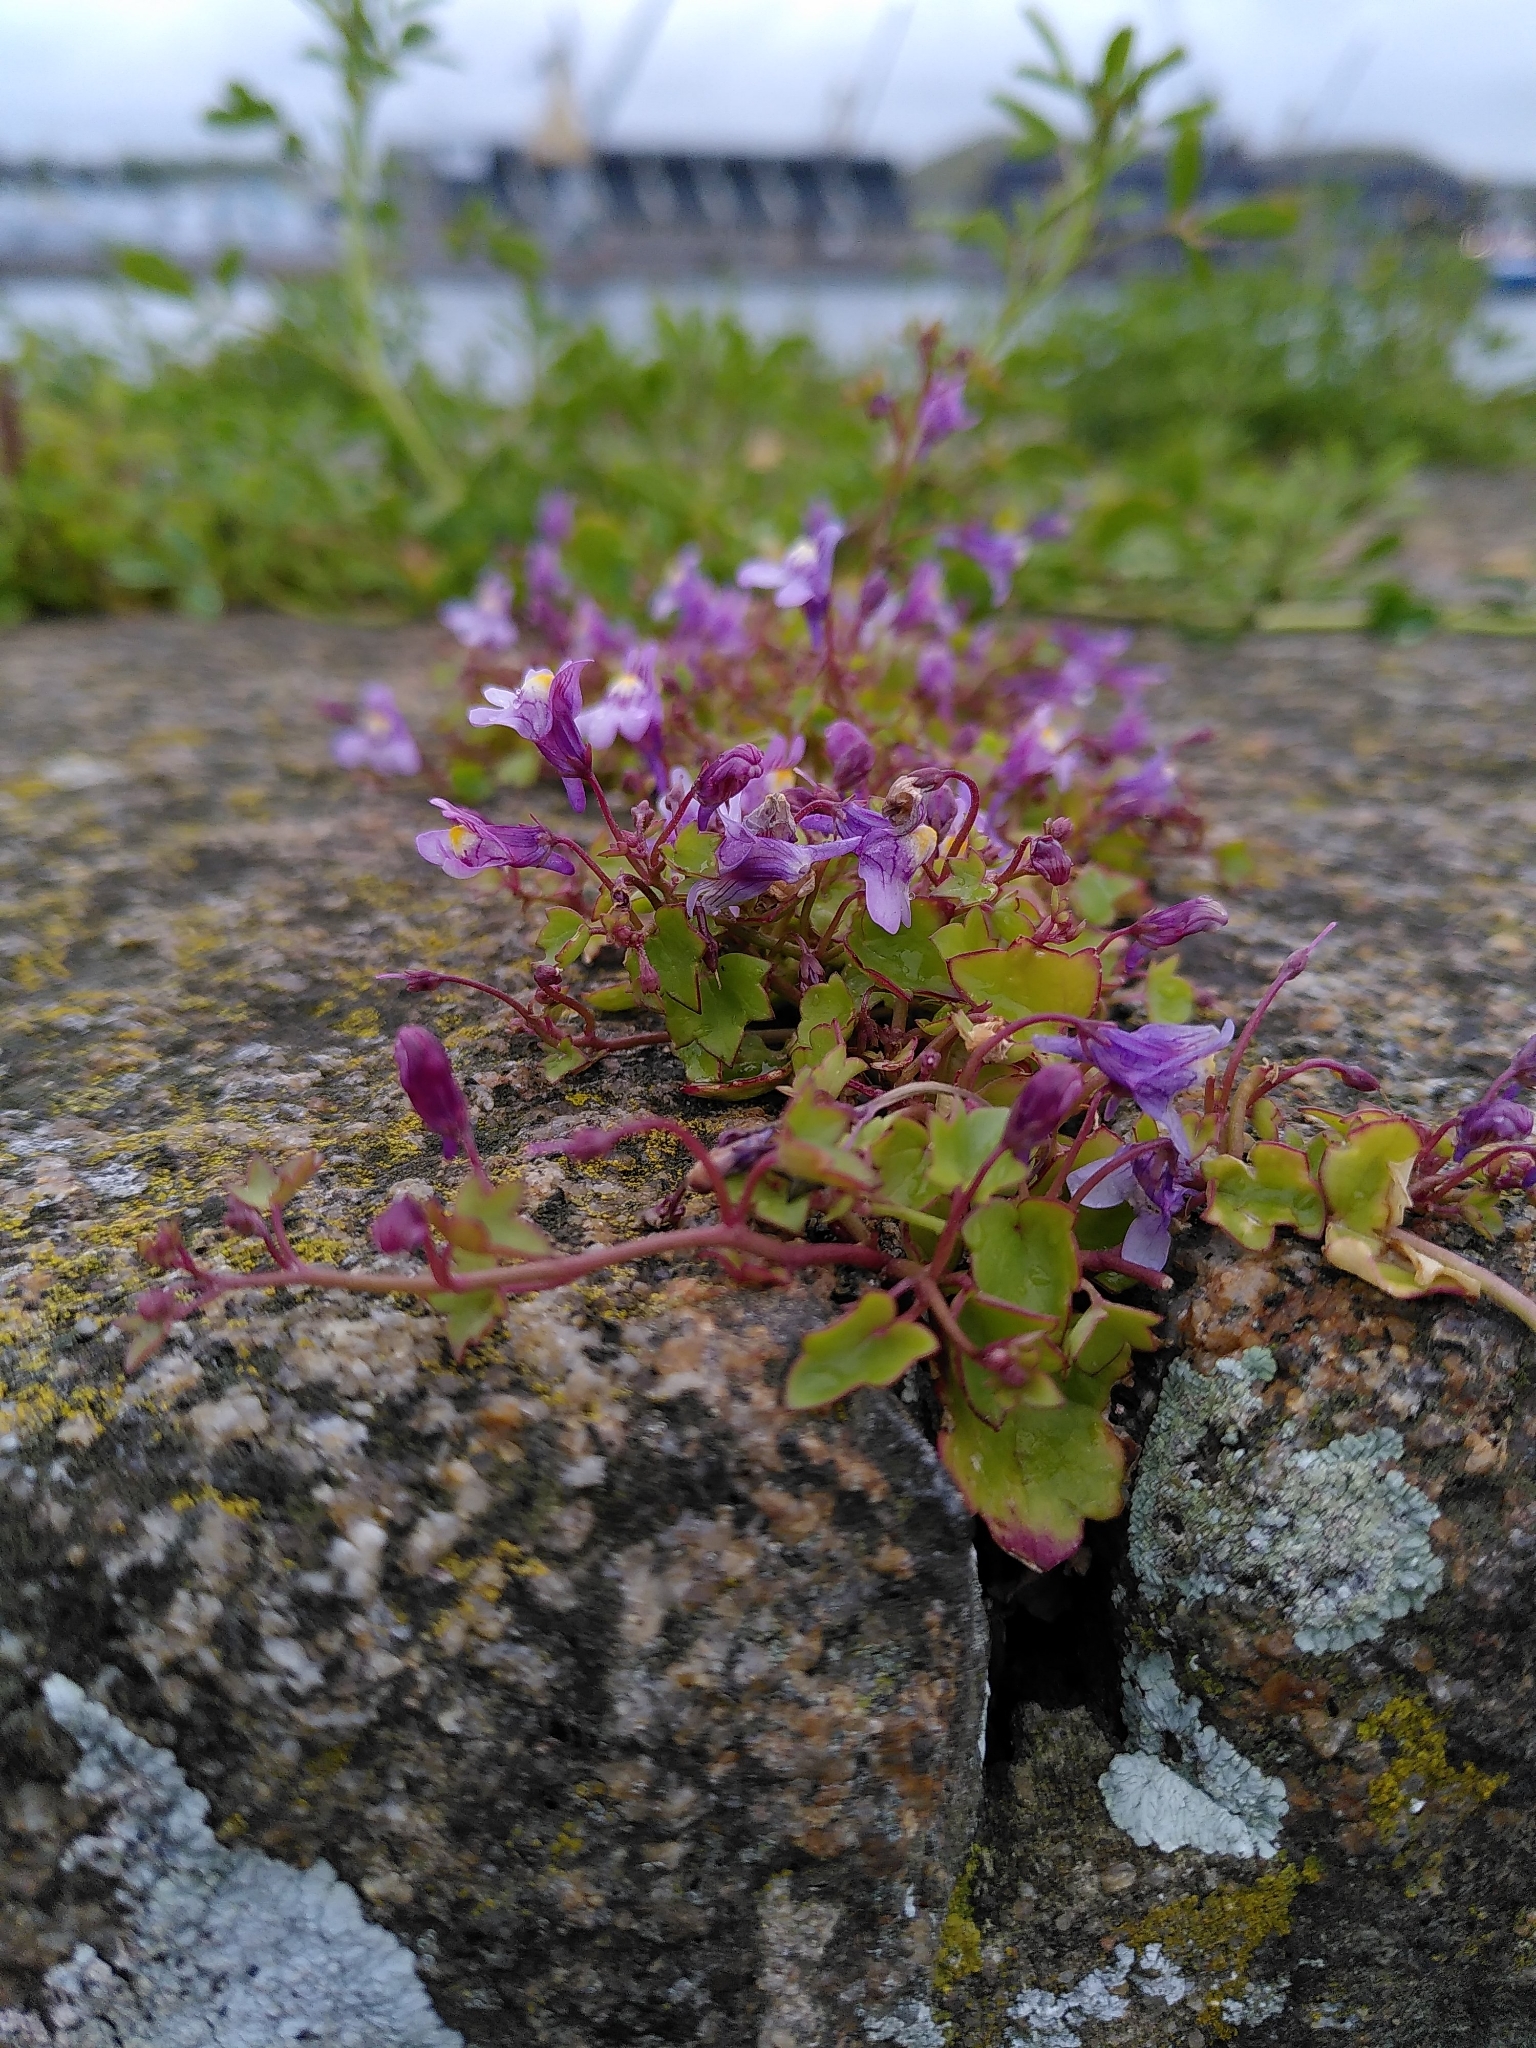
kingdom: Plantae
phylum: Tracheophyta
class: Magnoliopsida
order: Lamiales
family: Plantaginaceae
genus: Cymbalaria
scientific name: Cymbalaria muralis
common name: Ivy-leaved toadflax
